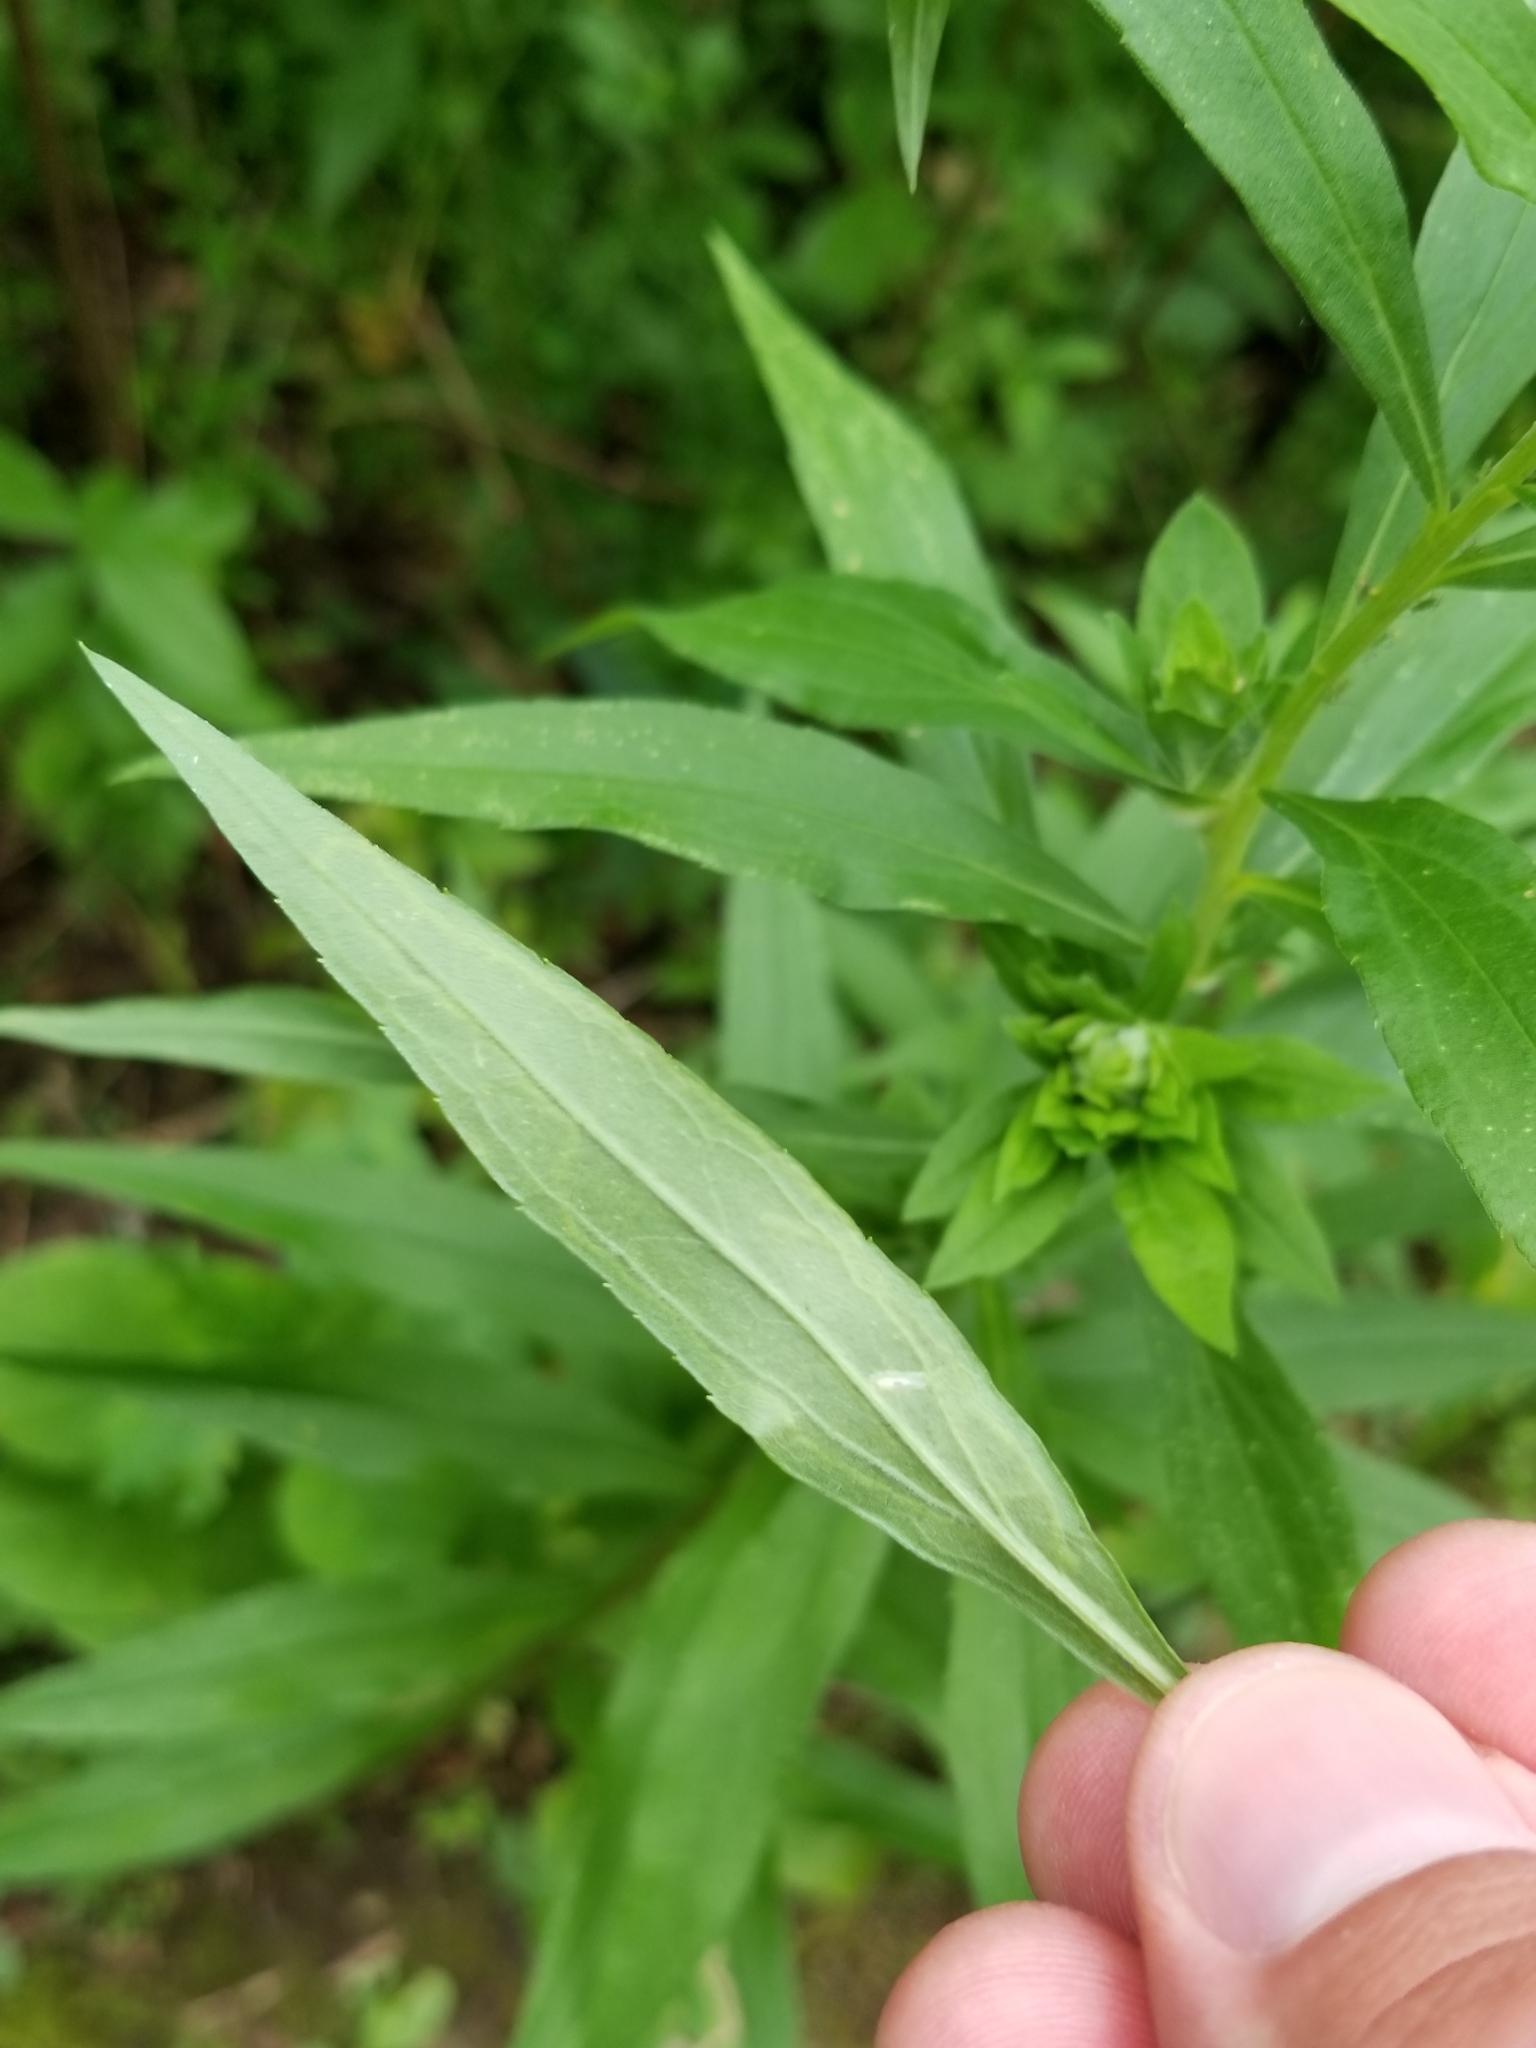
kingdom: Plantae
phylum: Tracheophyta
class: Magnoliopsida
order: Asterales
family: Asteraceae
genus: Solidago
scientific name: Solidago altissima
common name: Late goldenrod
